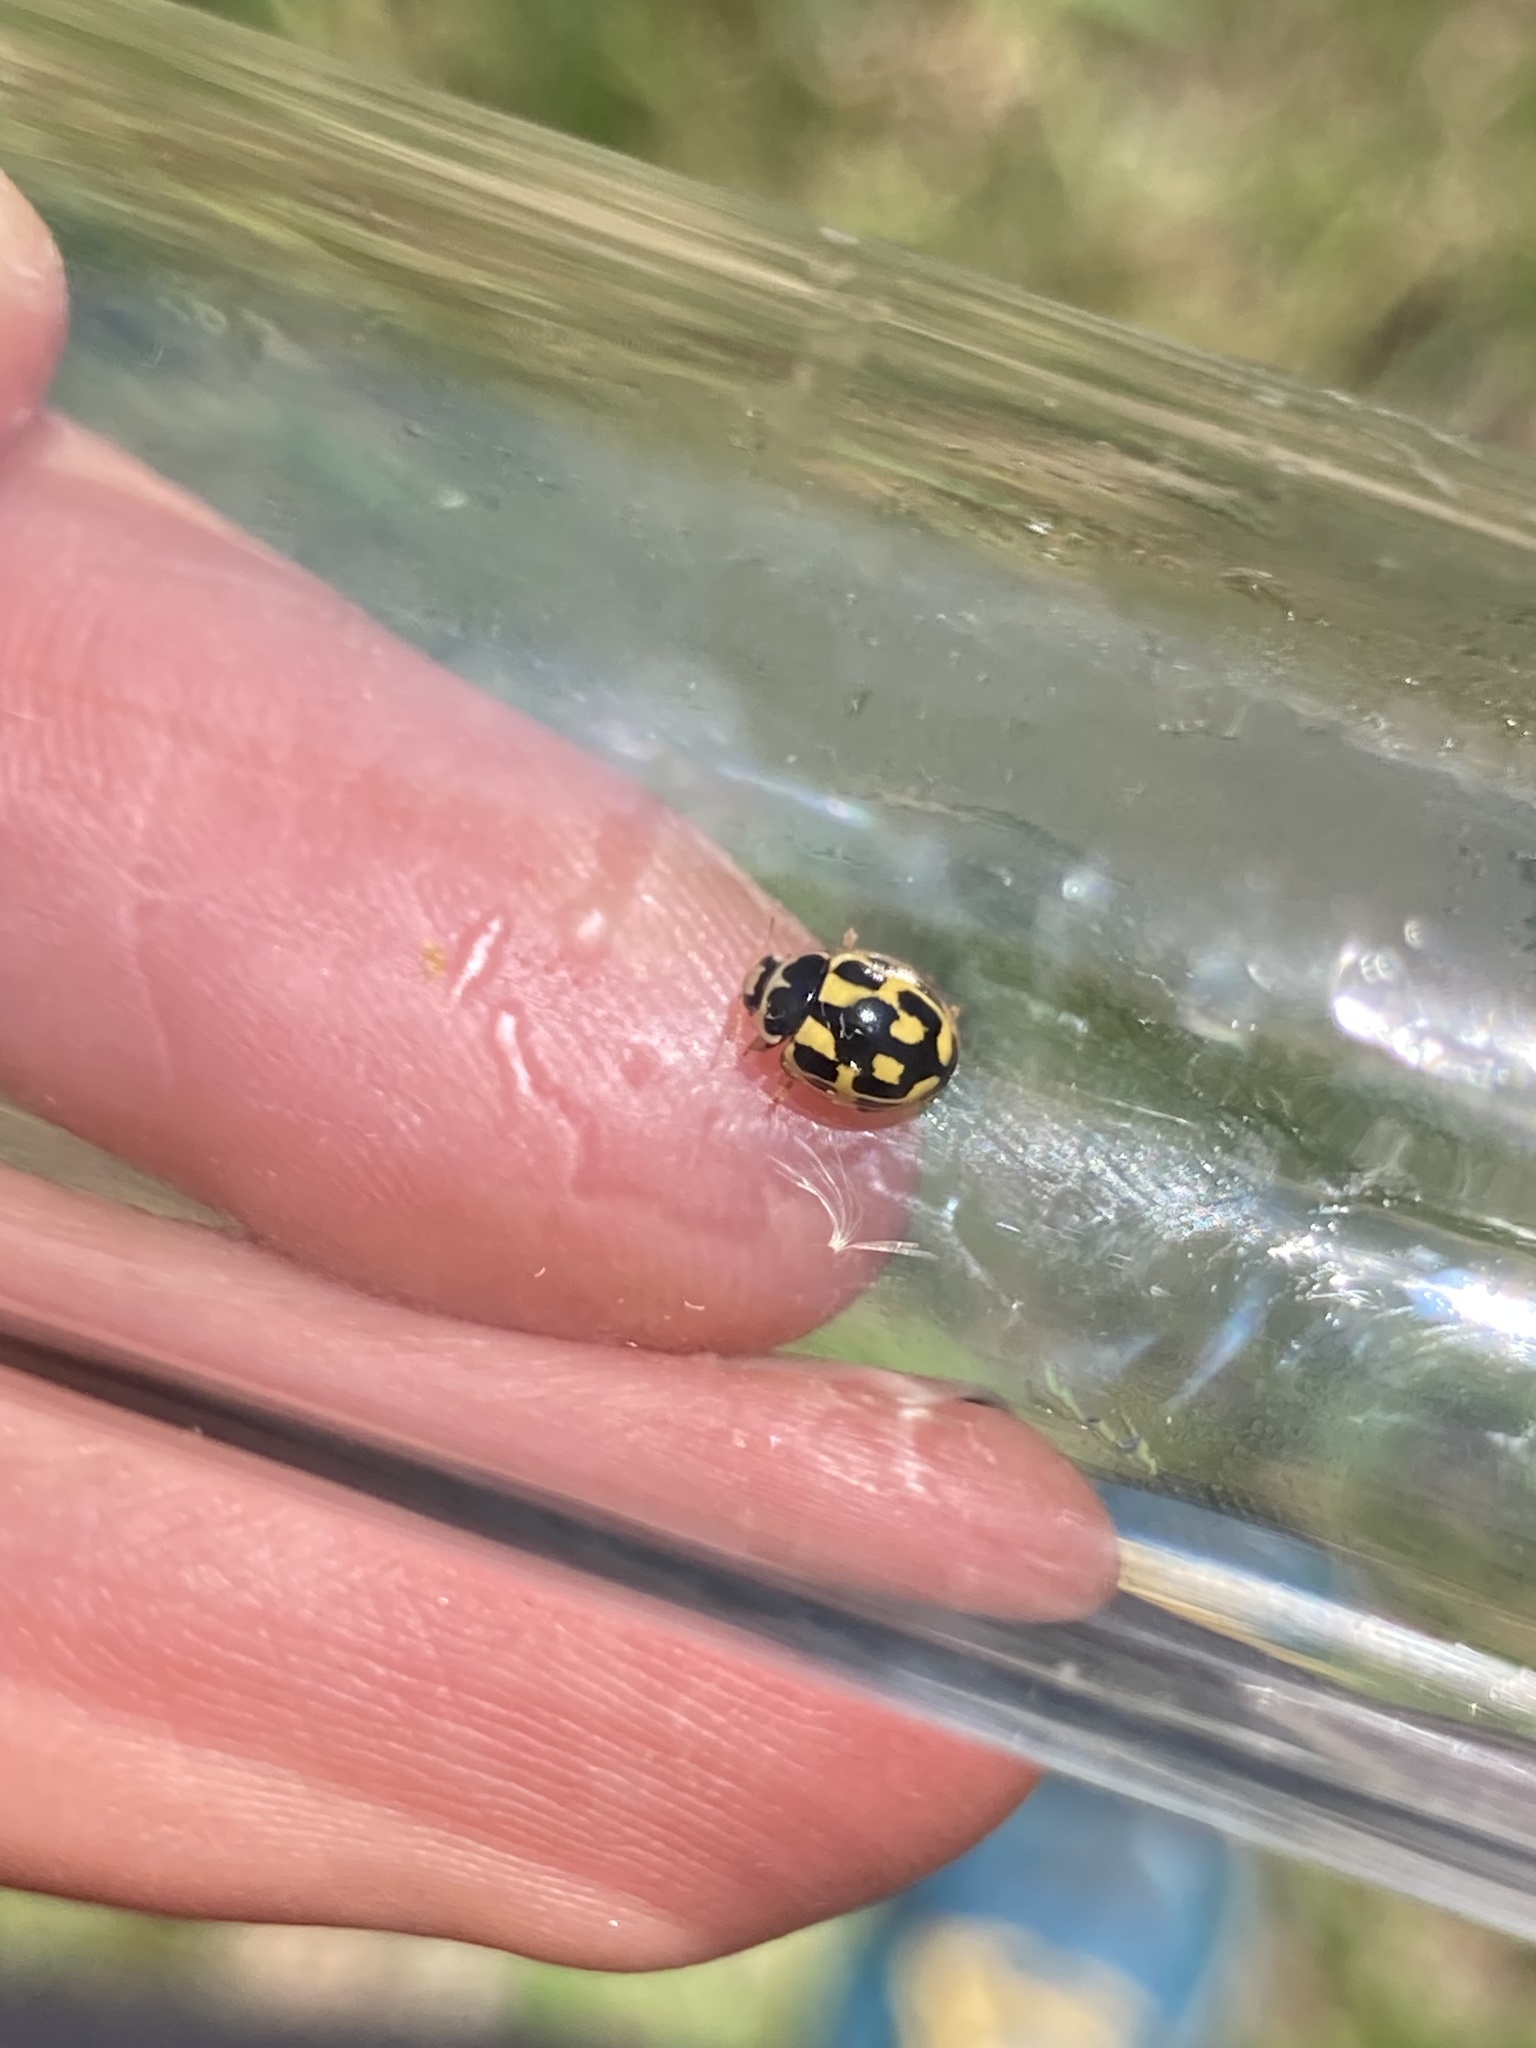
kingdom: Animalia
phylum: Arthropoda
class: Insecta
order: Coleoptera
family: Coccinellidae
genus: Propylaea
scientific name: Propylaea quatuordecimpunctata
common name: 14-spotted ladybird beetle
